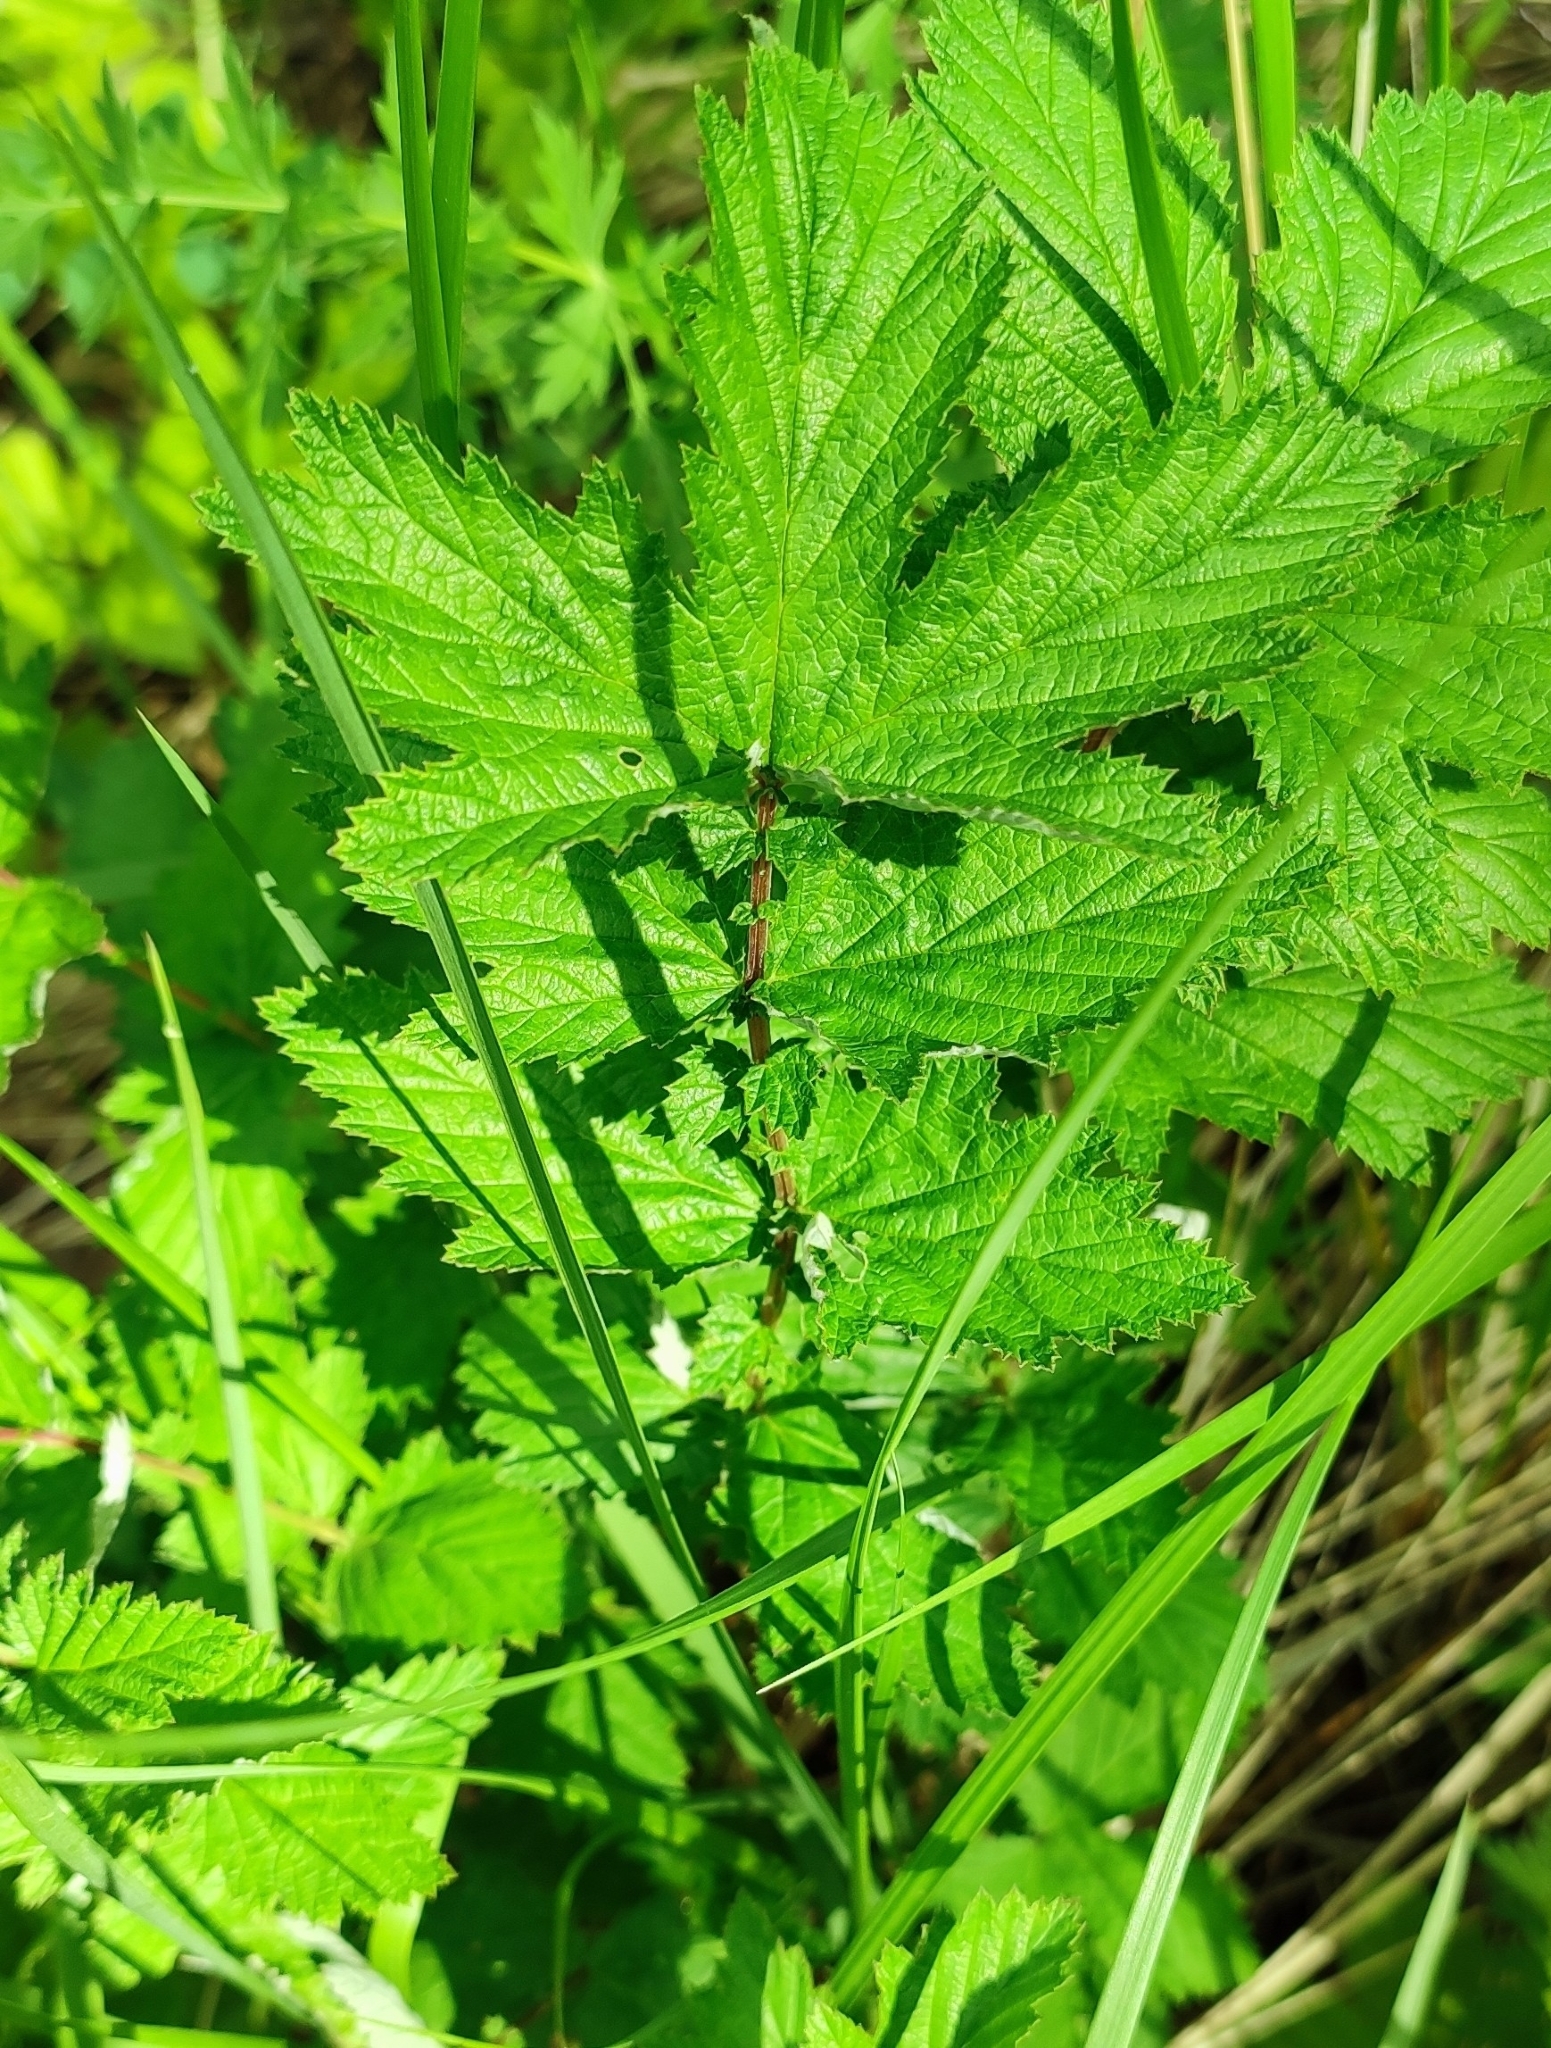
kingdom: Plantae
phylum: Tracheophyta
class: Magnoliopsida
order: Rosales
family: Rosaceae
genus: Filipendula
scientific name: Filipendula ulmaria
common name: Meadowsweet
